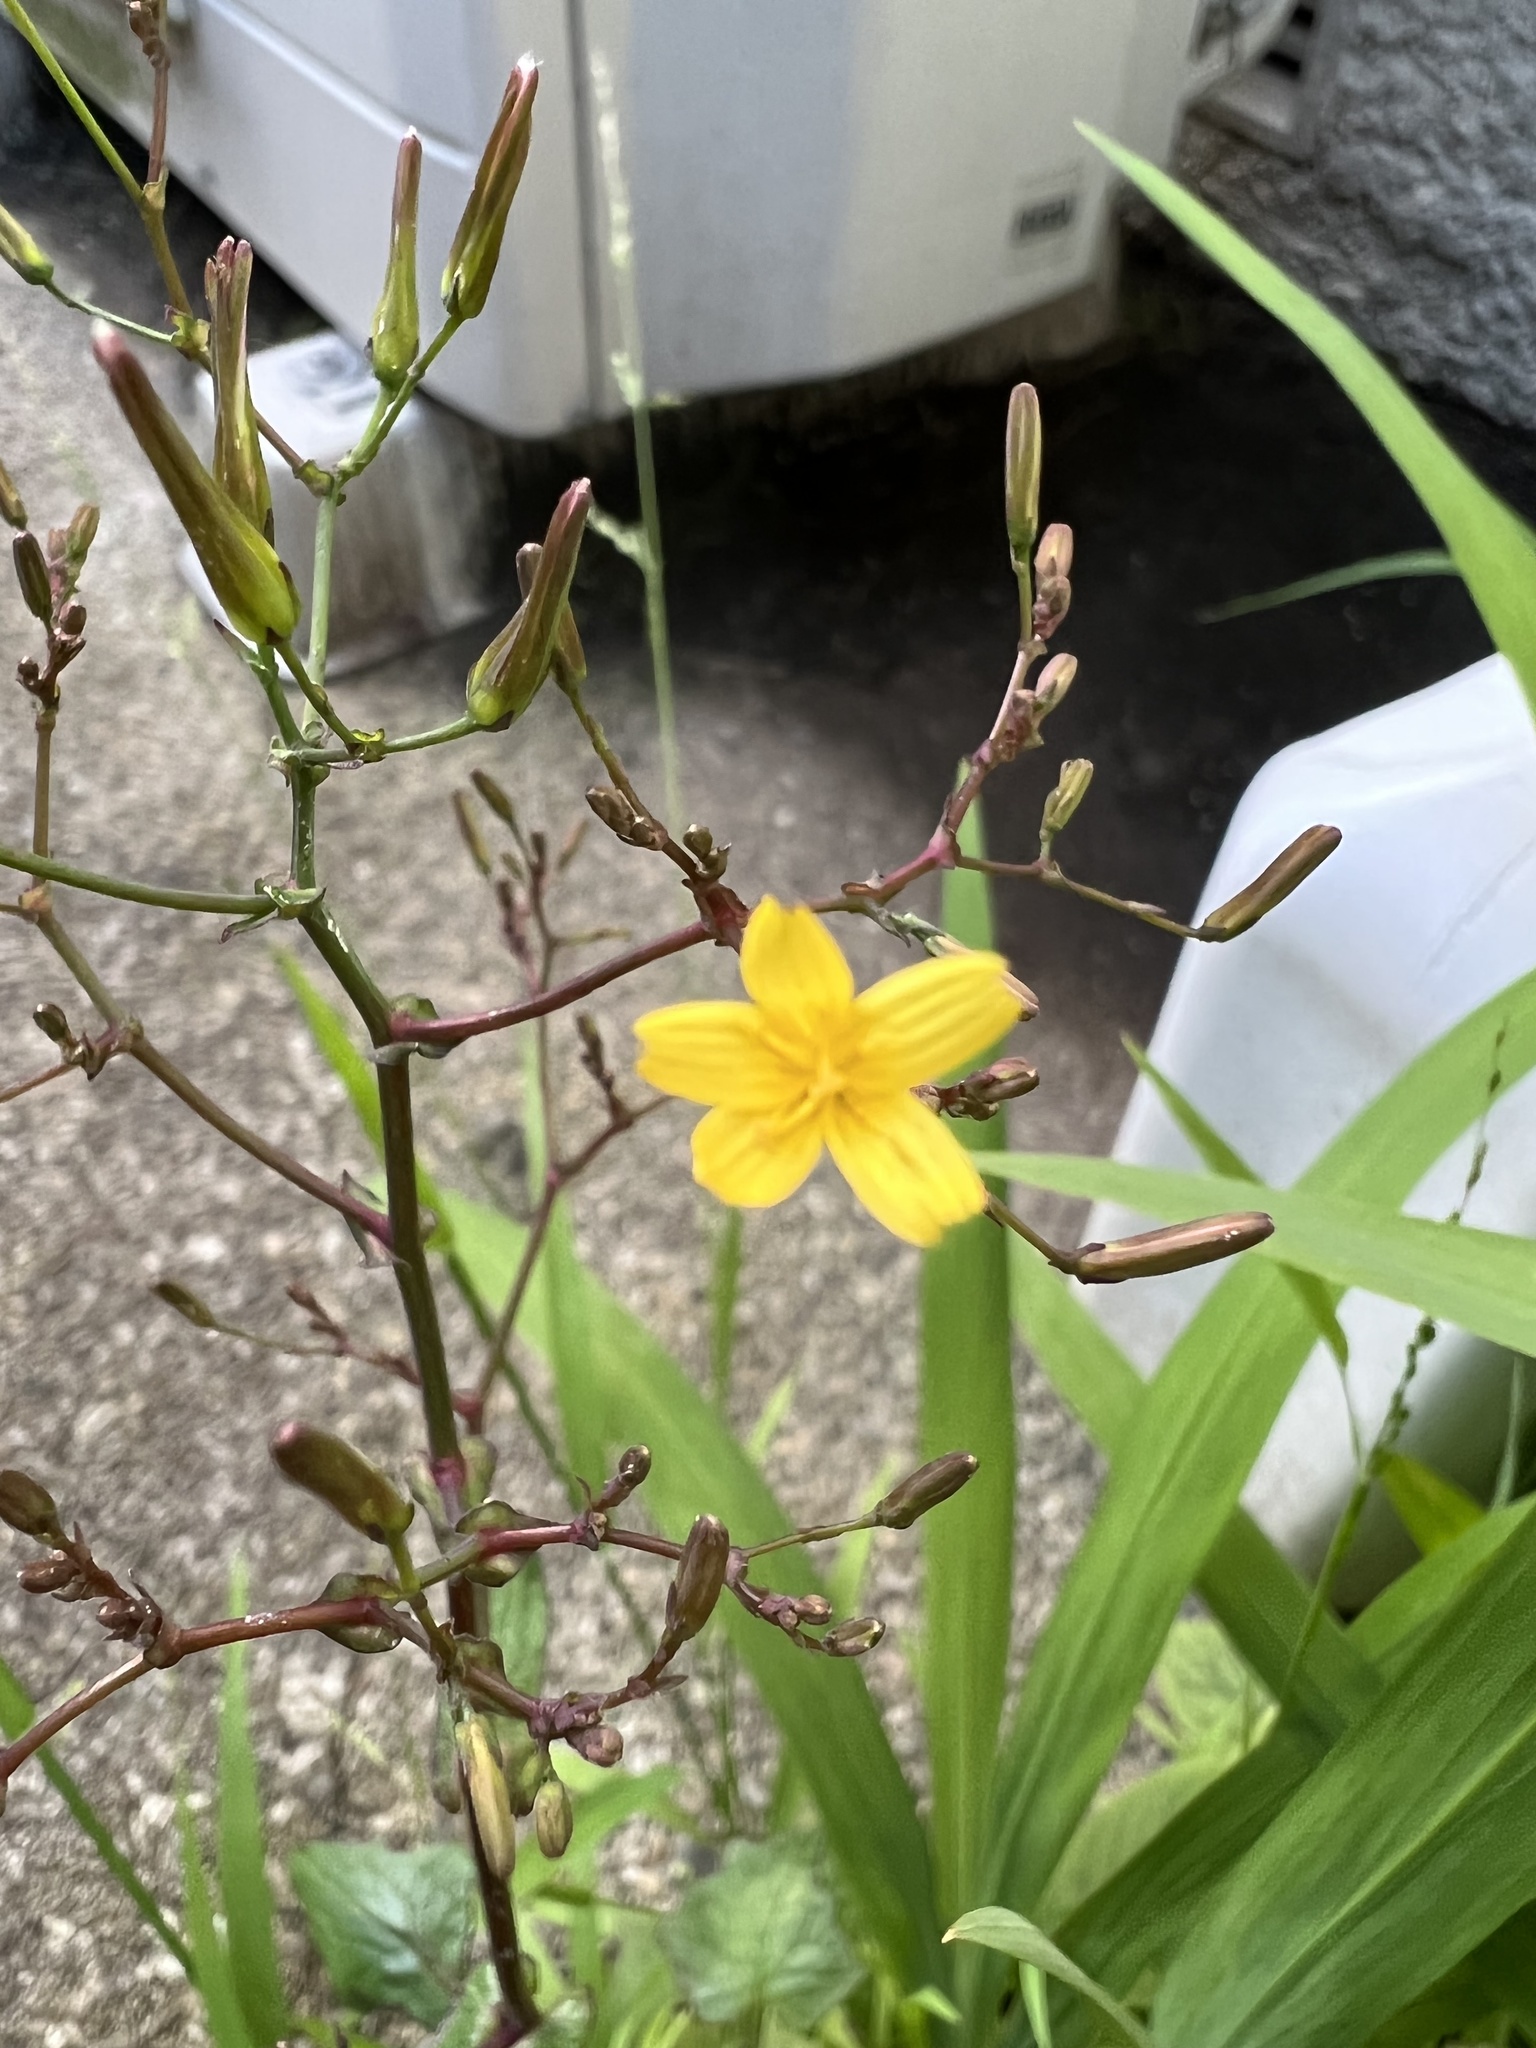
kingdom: Plantae
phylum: Tracheophyta
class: Magnoliopsida
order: Asterales
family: Asteraceae
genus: Mycelis
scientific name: Mycelis muralis
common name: Wall lettuce
